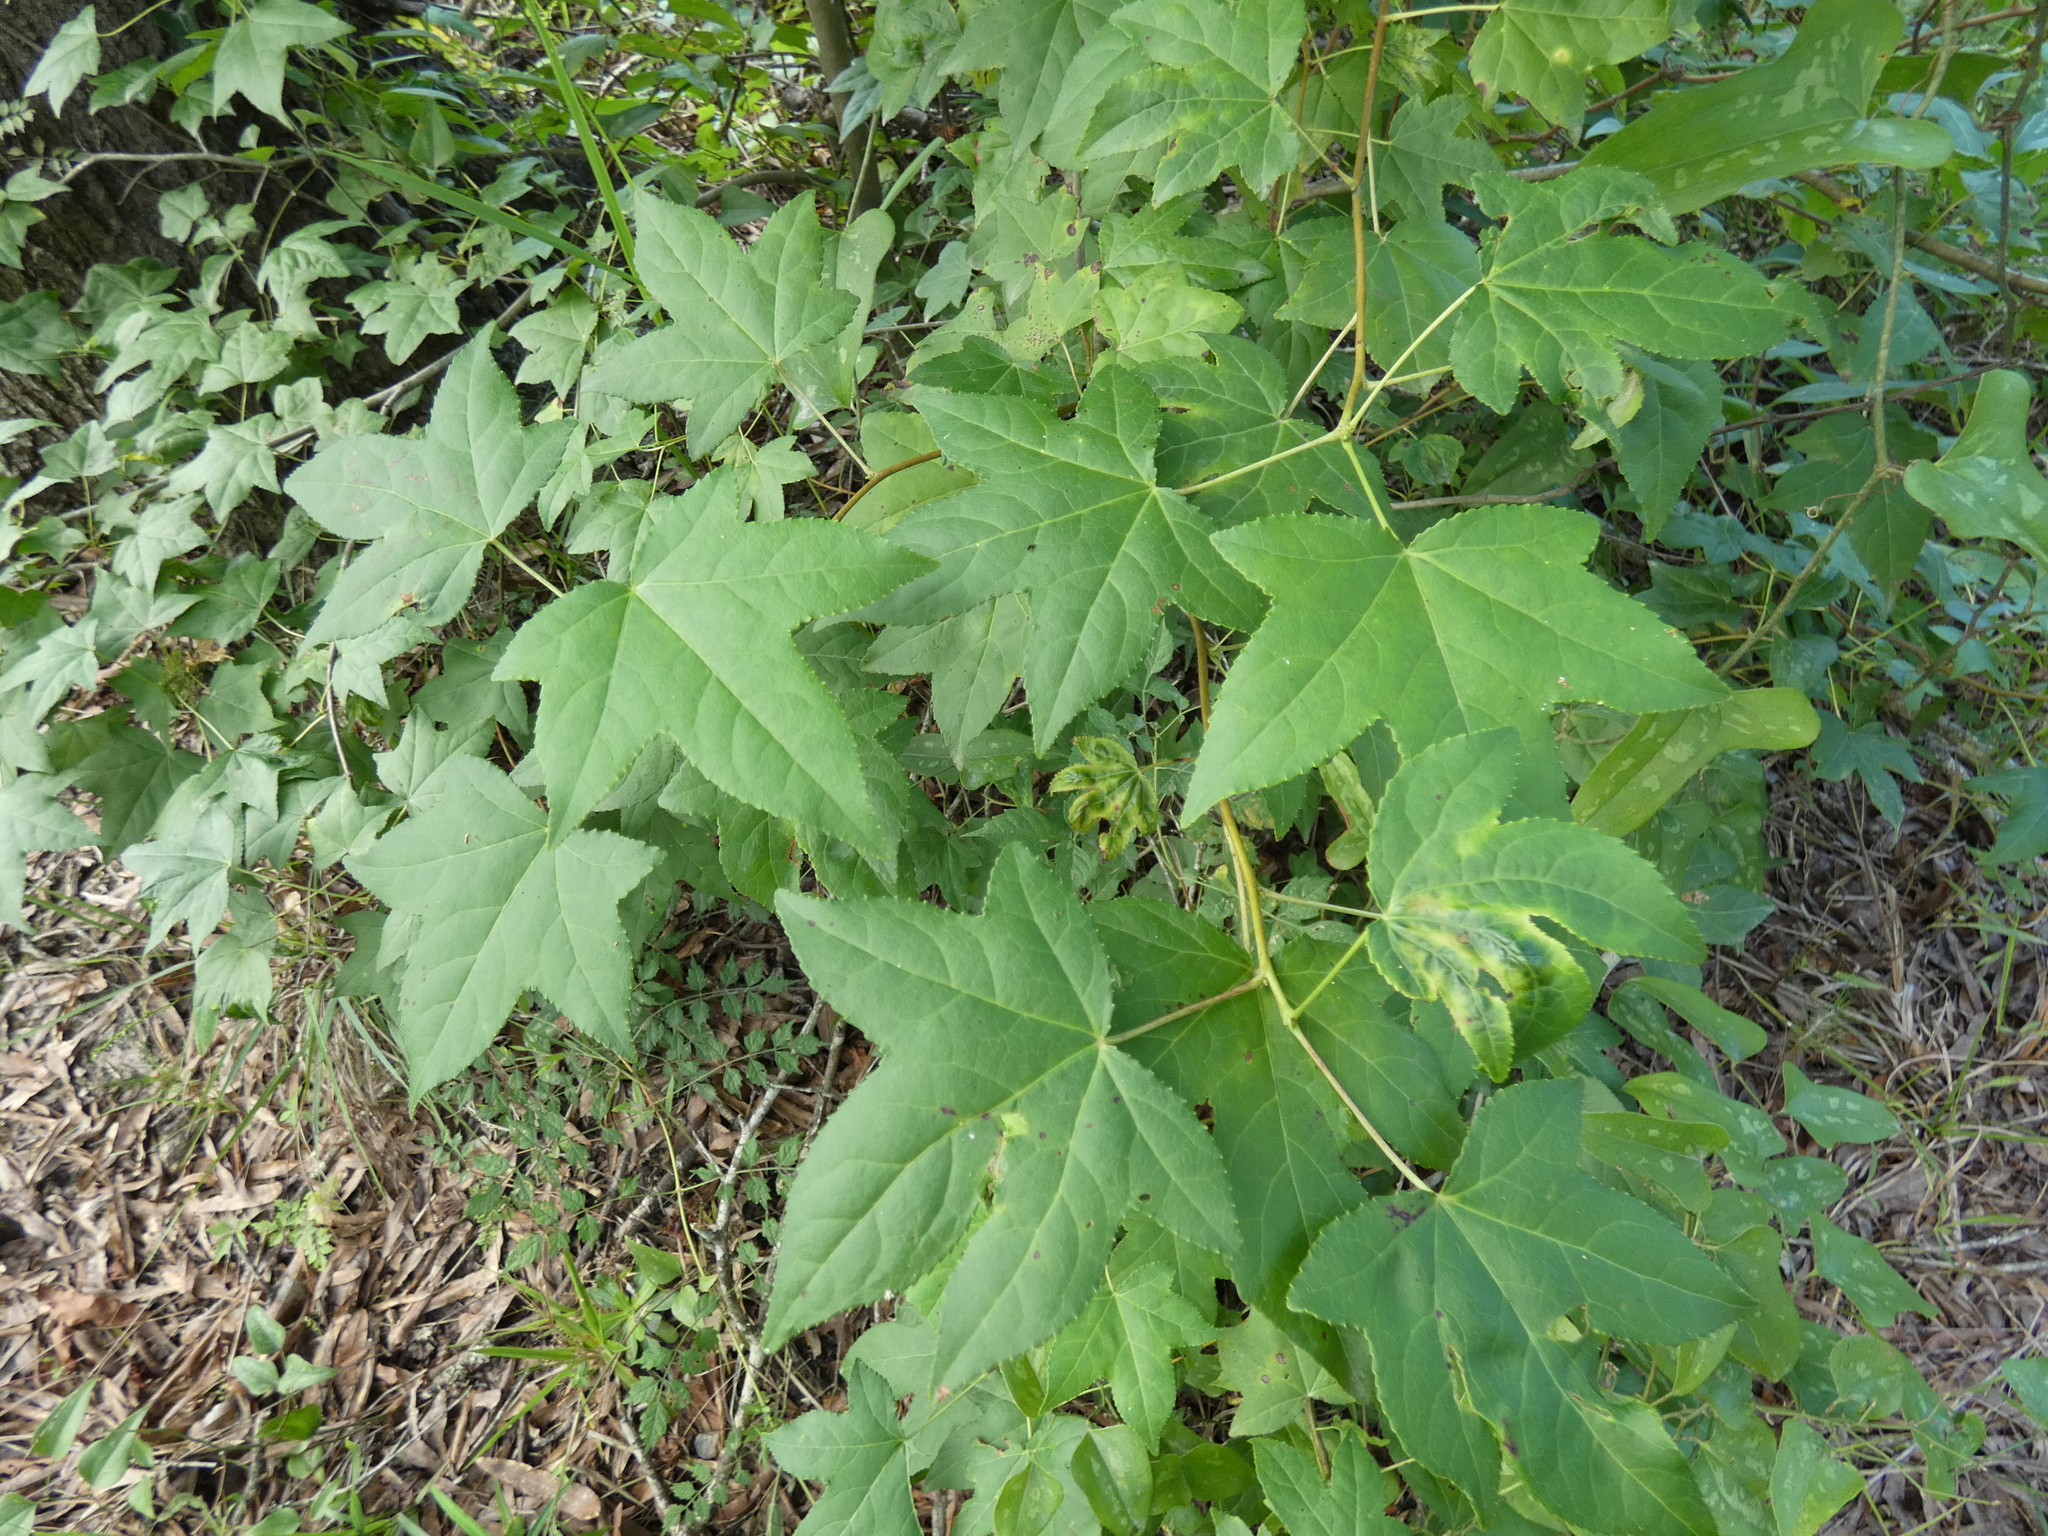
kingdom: Plantae
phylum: Tracheophyta
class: Magnoliopsida
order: Saxifragales
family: Altingiaceae
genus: Liquidambar
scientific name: Liquidambar styraciflua
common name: Sweet gum
